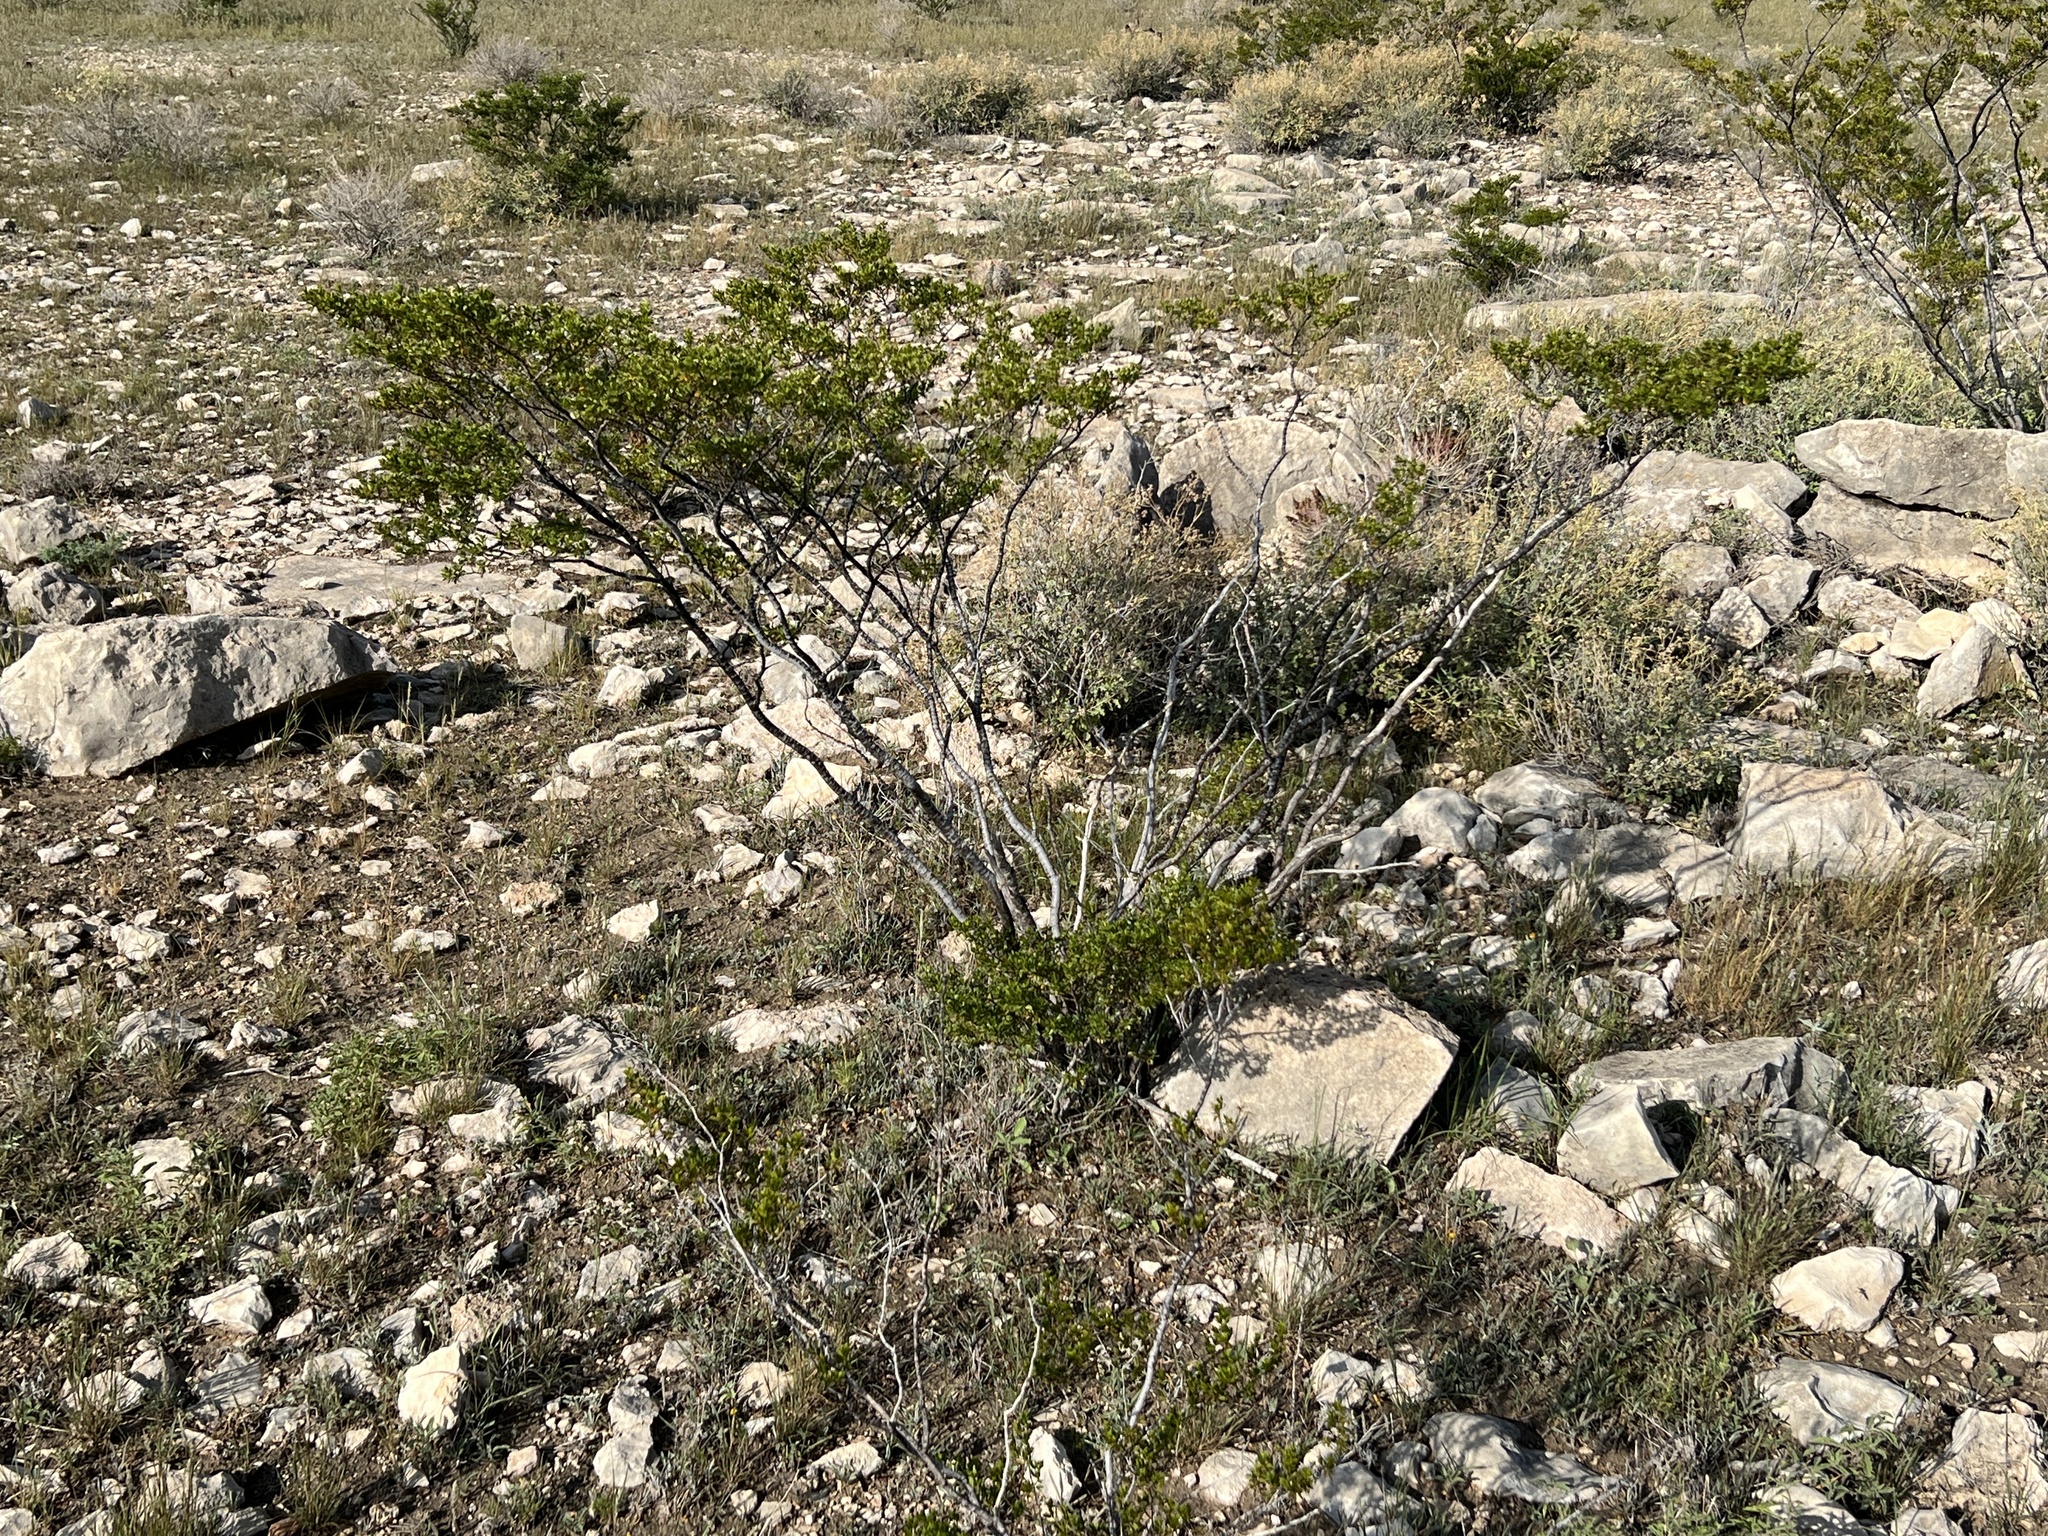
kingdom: Plantae
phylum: Tracheophyta
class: Magnoliopsida
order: Zygophyllales
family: Zygophyllaceae
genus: Larrea
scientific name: Larrea tridentata
